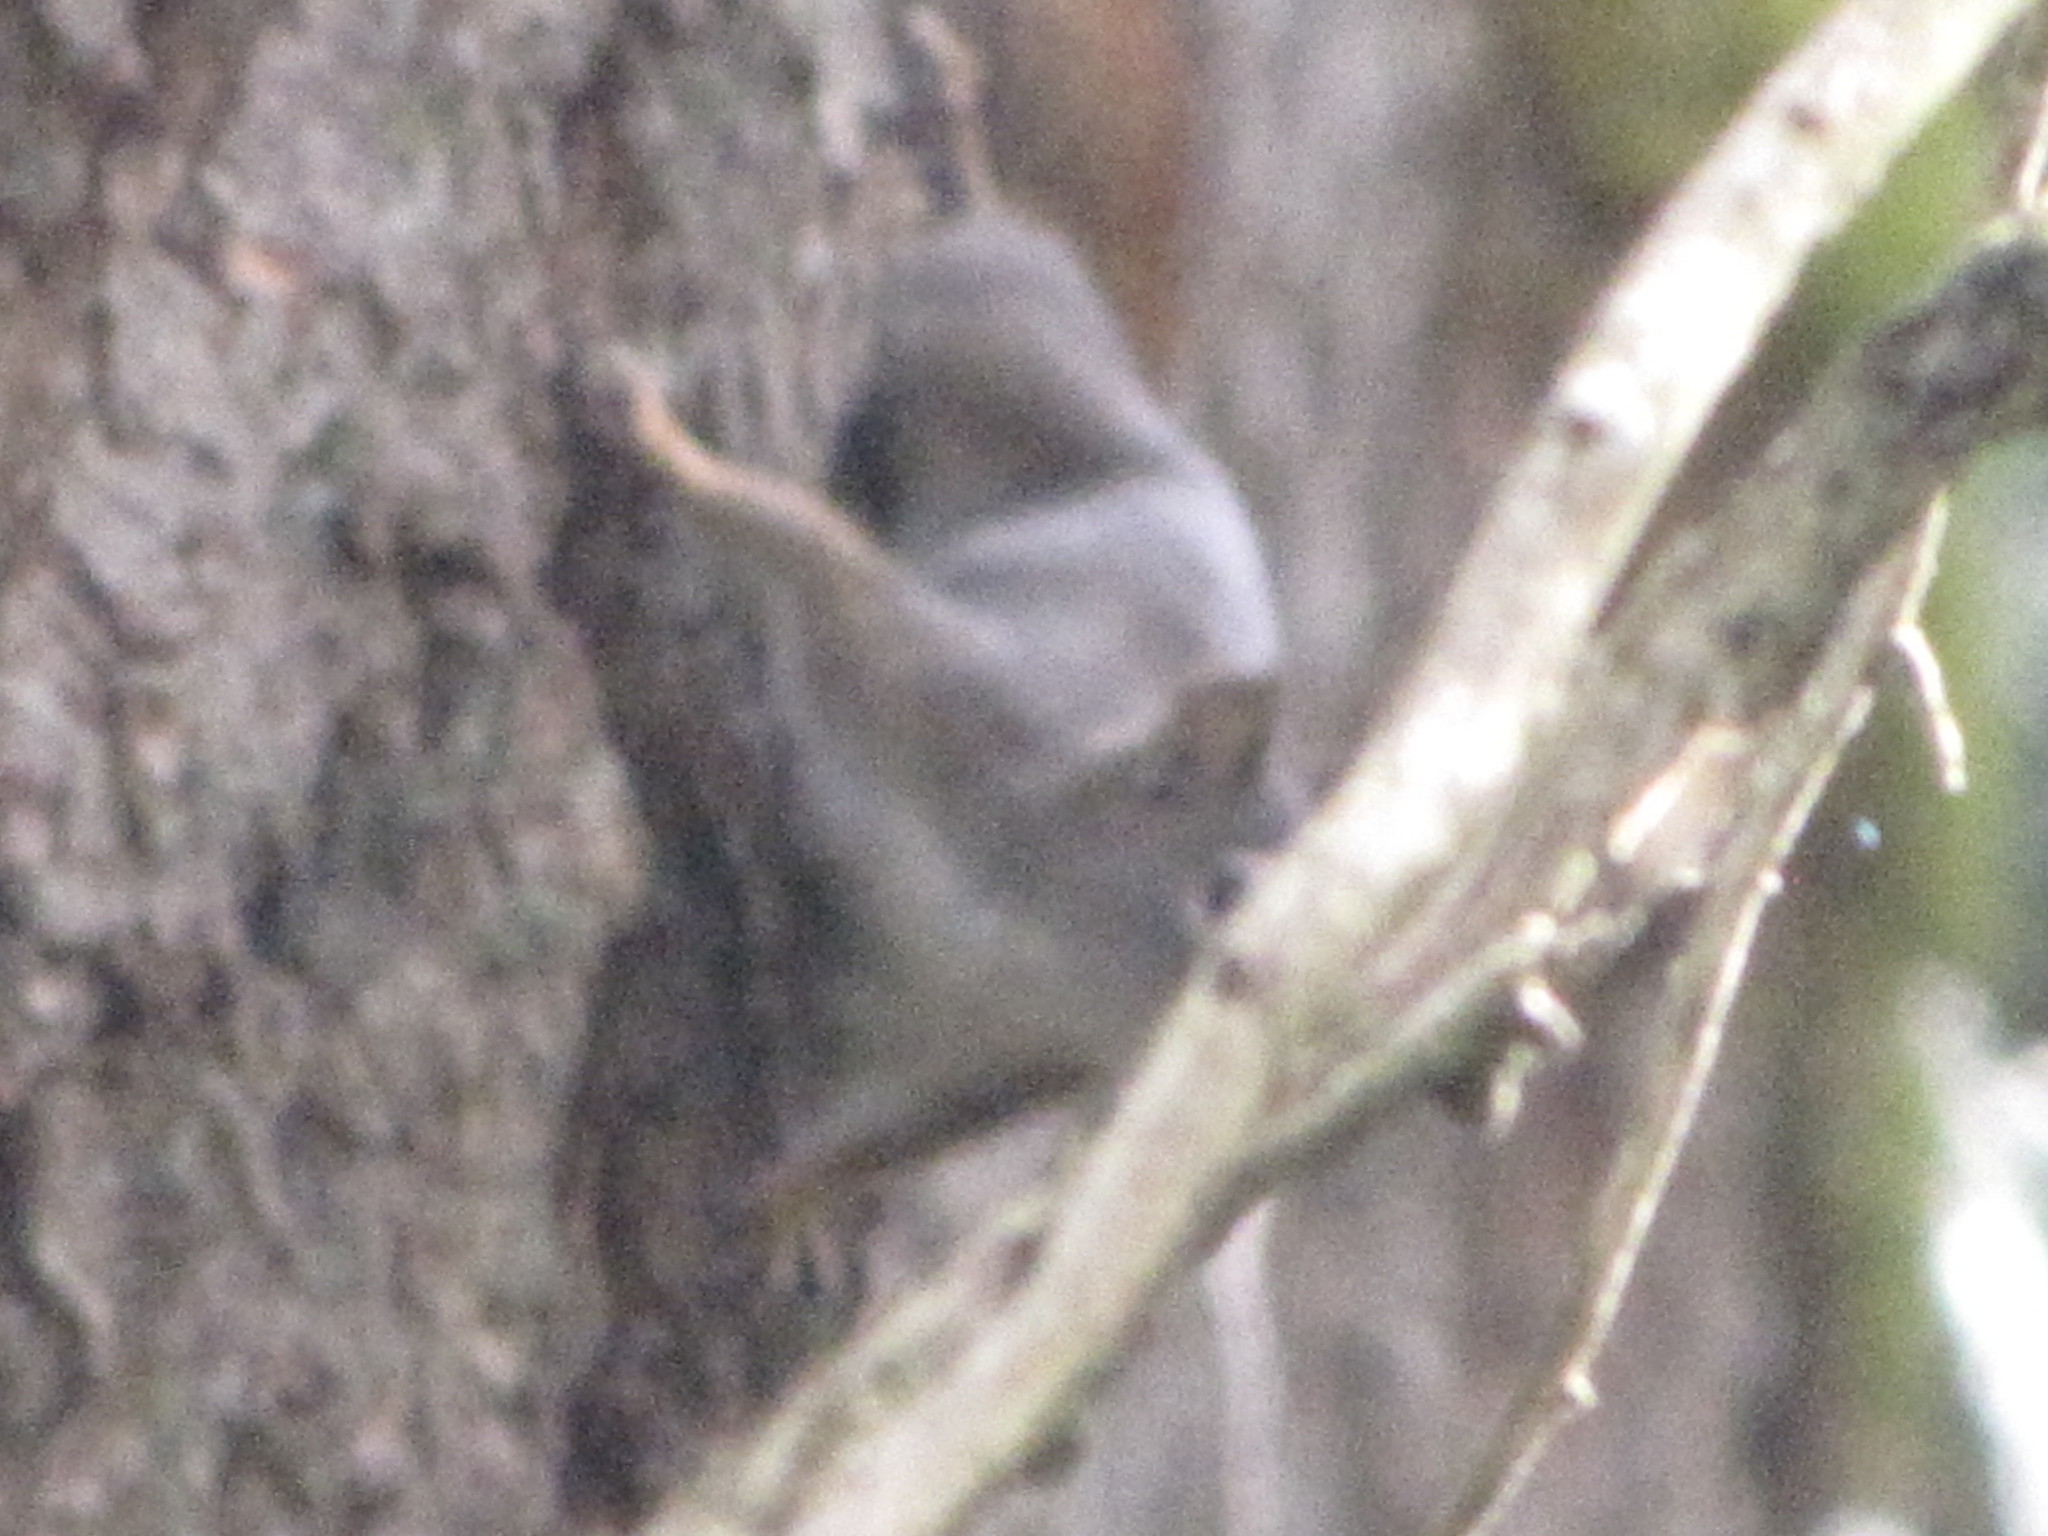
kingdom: Animalia
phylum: Chordata
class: Mammalia
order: Rodentia
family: Sciuridae
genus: Tamiasciurus
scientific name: Tamiasciurus hudsonicus
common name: Red squirrel
